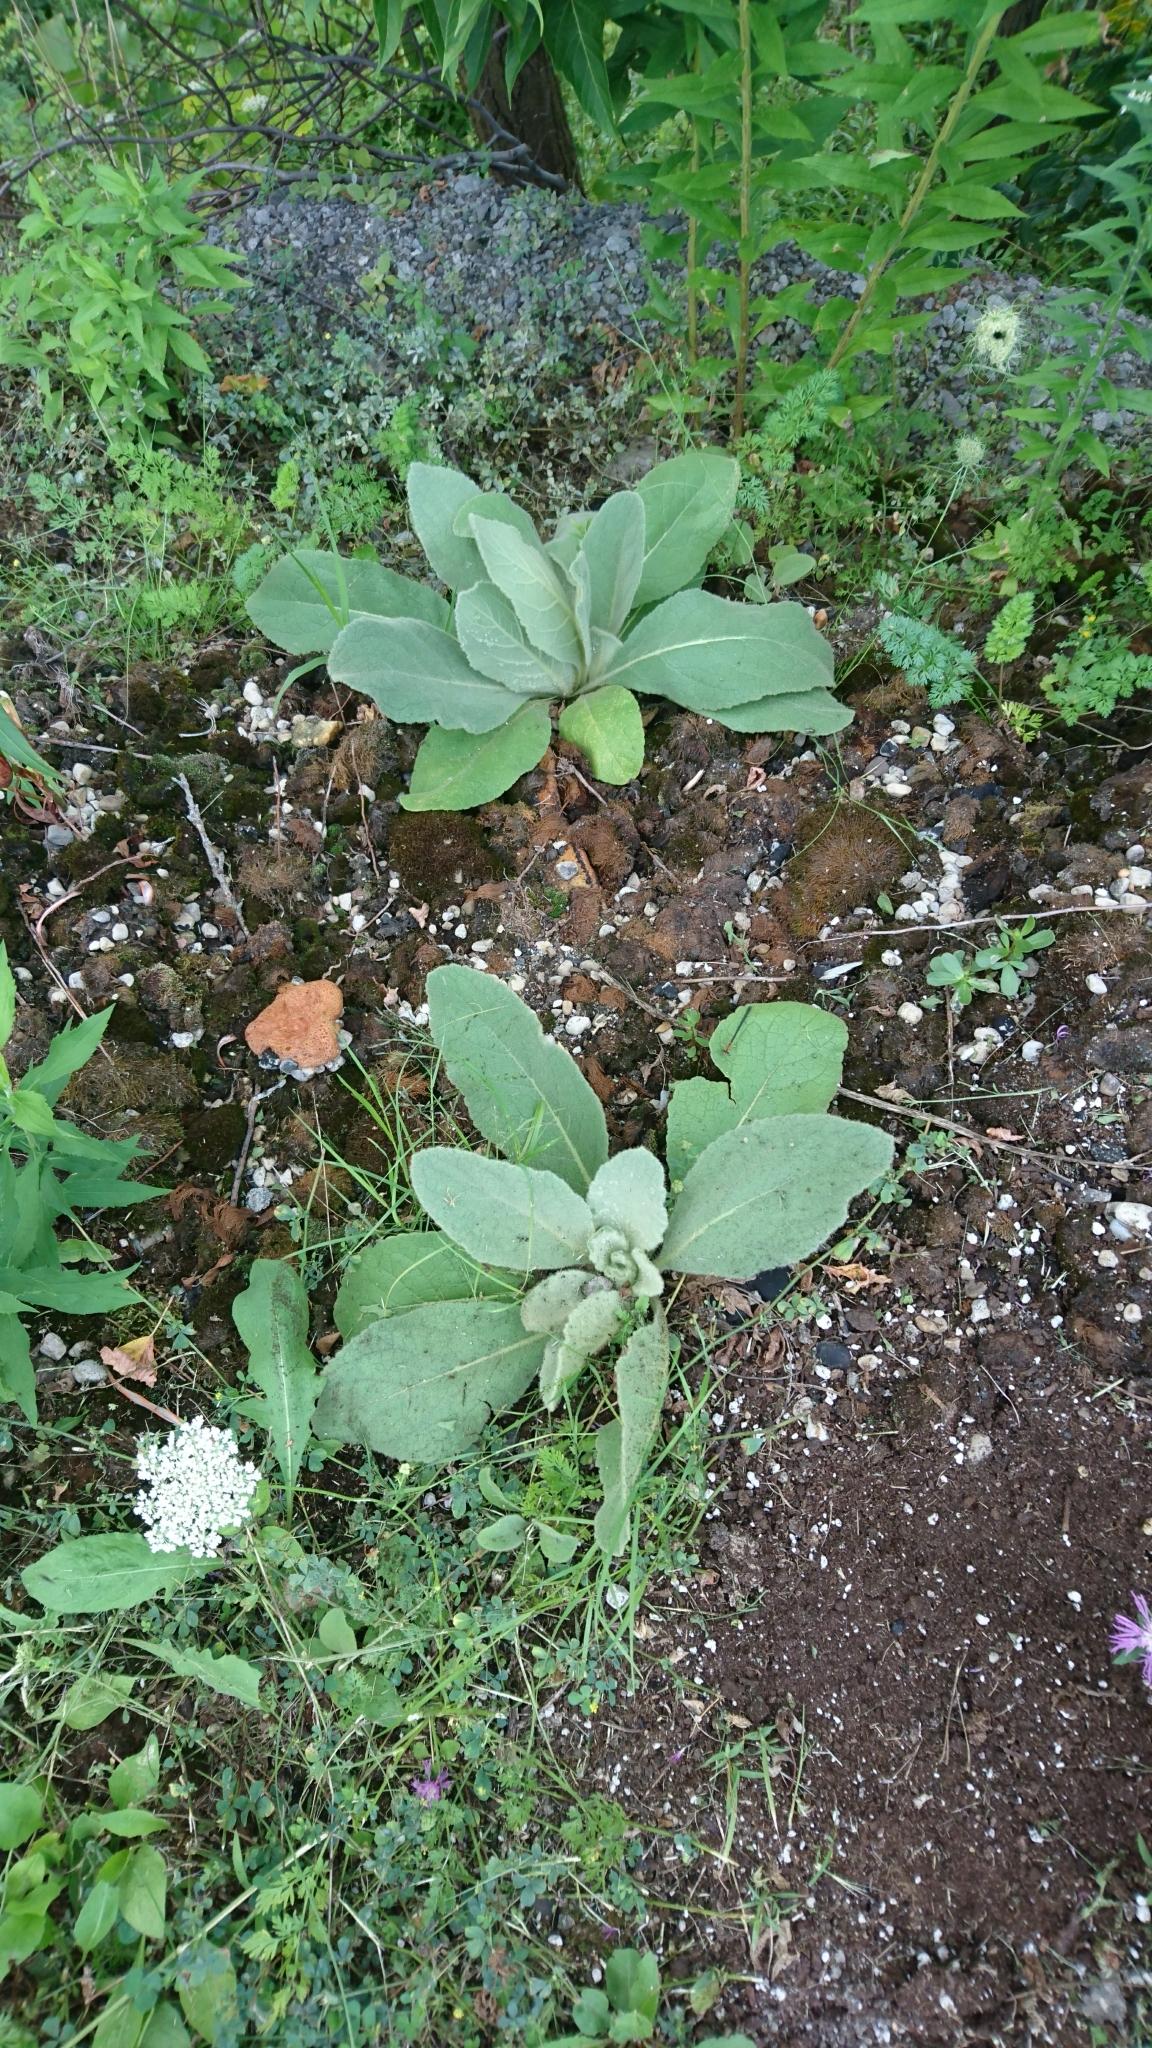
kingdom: Plantae
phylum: Tracheophyta
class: Magnoliopsida
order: Lamiales
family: Scrophulariaceae
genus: Verbascum
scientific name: Verbascum thapsus
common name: Common mullein
